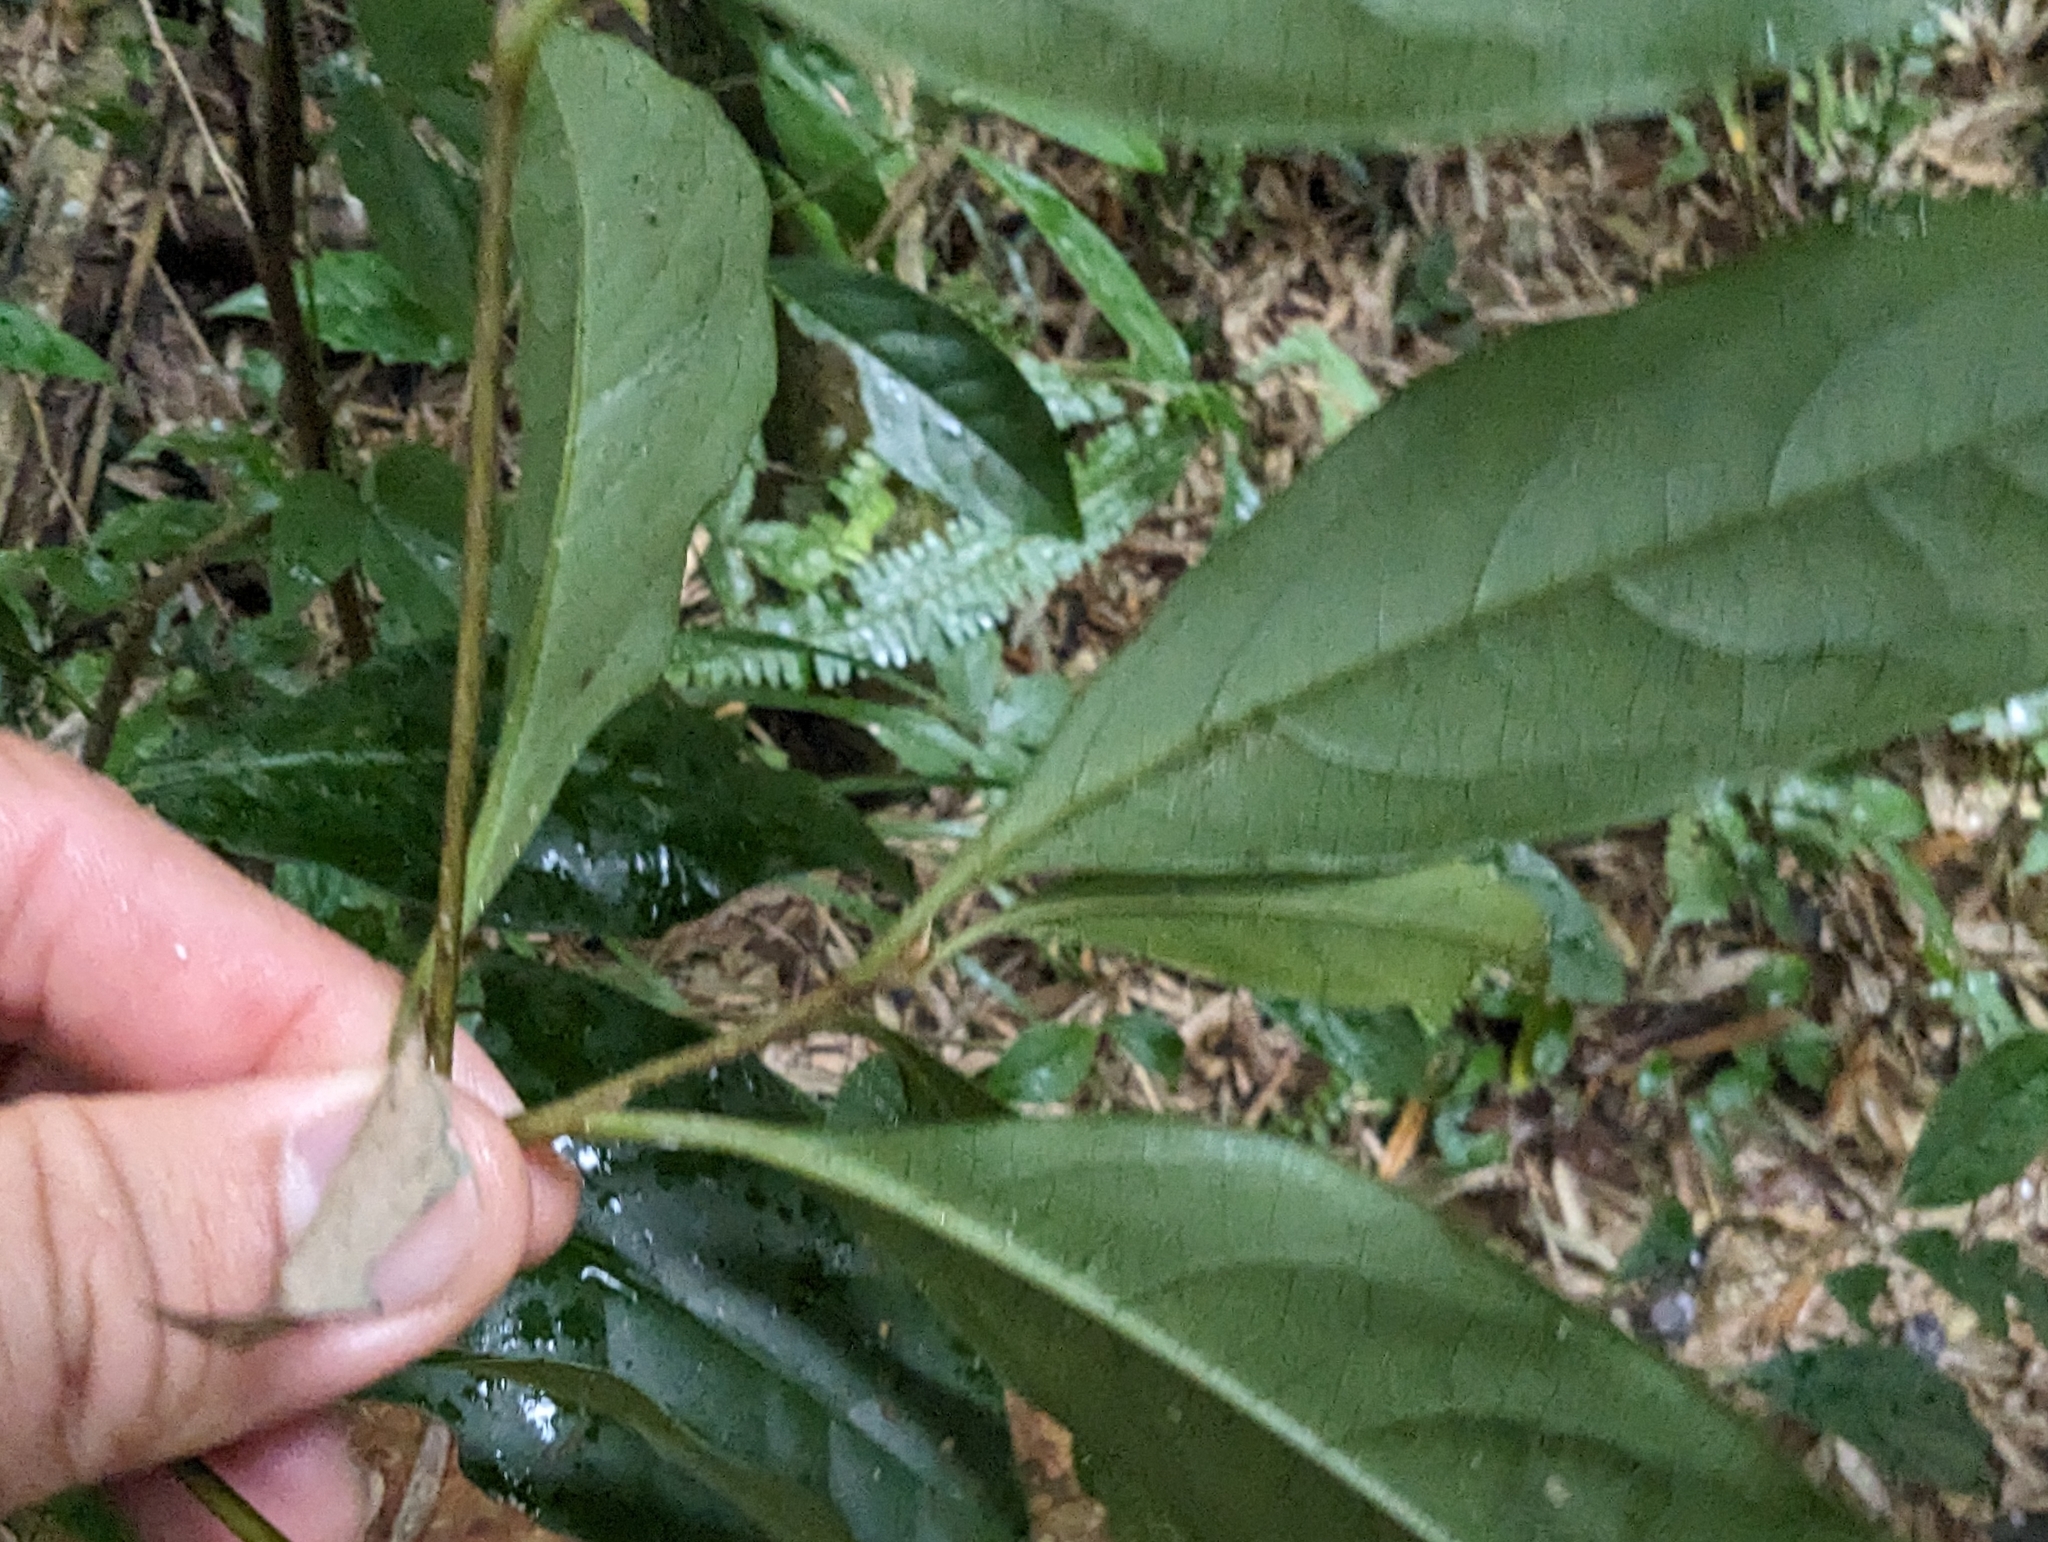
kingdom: Plantae
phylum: Tracheophyta
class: Magnoliopsida
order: Ericales
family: Ebenaceae
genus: Diospyros
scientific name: Diospyros morrisiana
